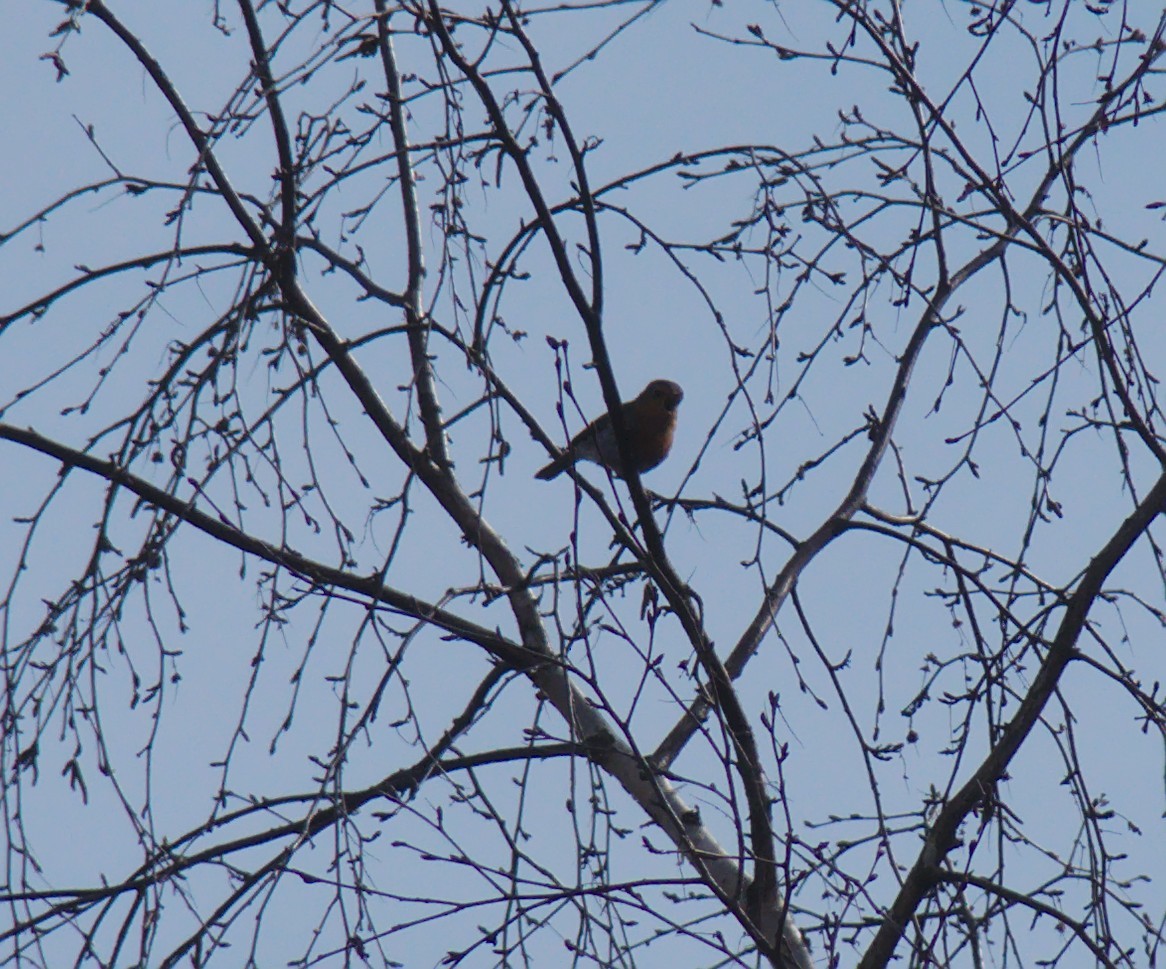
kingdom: Animalia
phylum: Chordata
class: Aves
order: Passeriformes
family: Muscicapidae
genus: Erithacus
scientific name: Erithacus rubecula
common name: European robin
